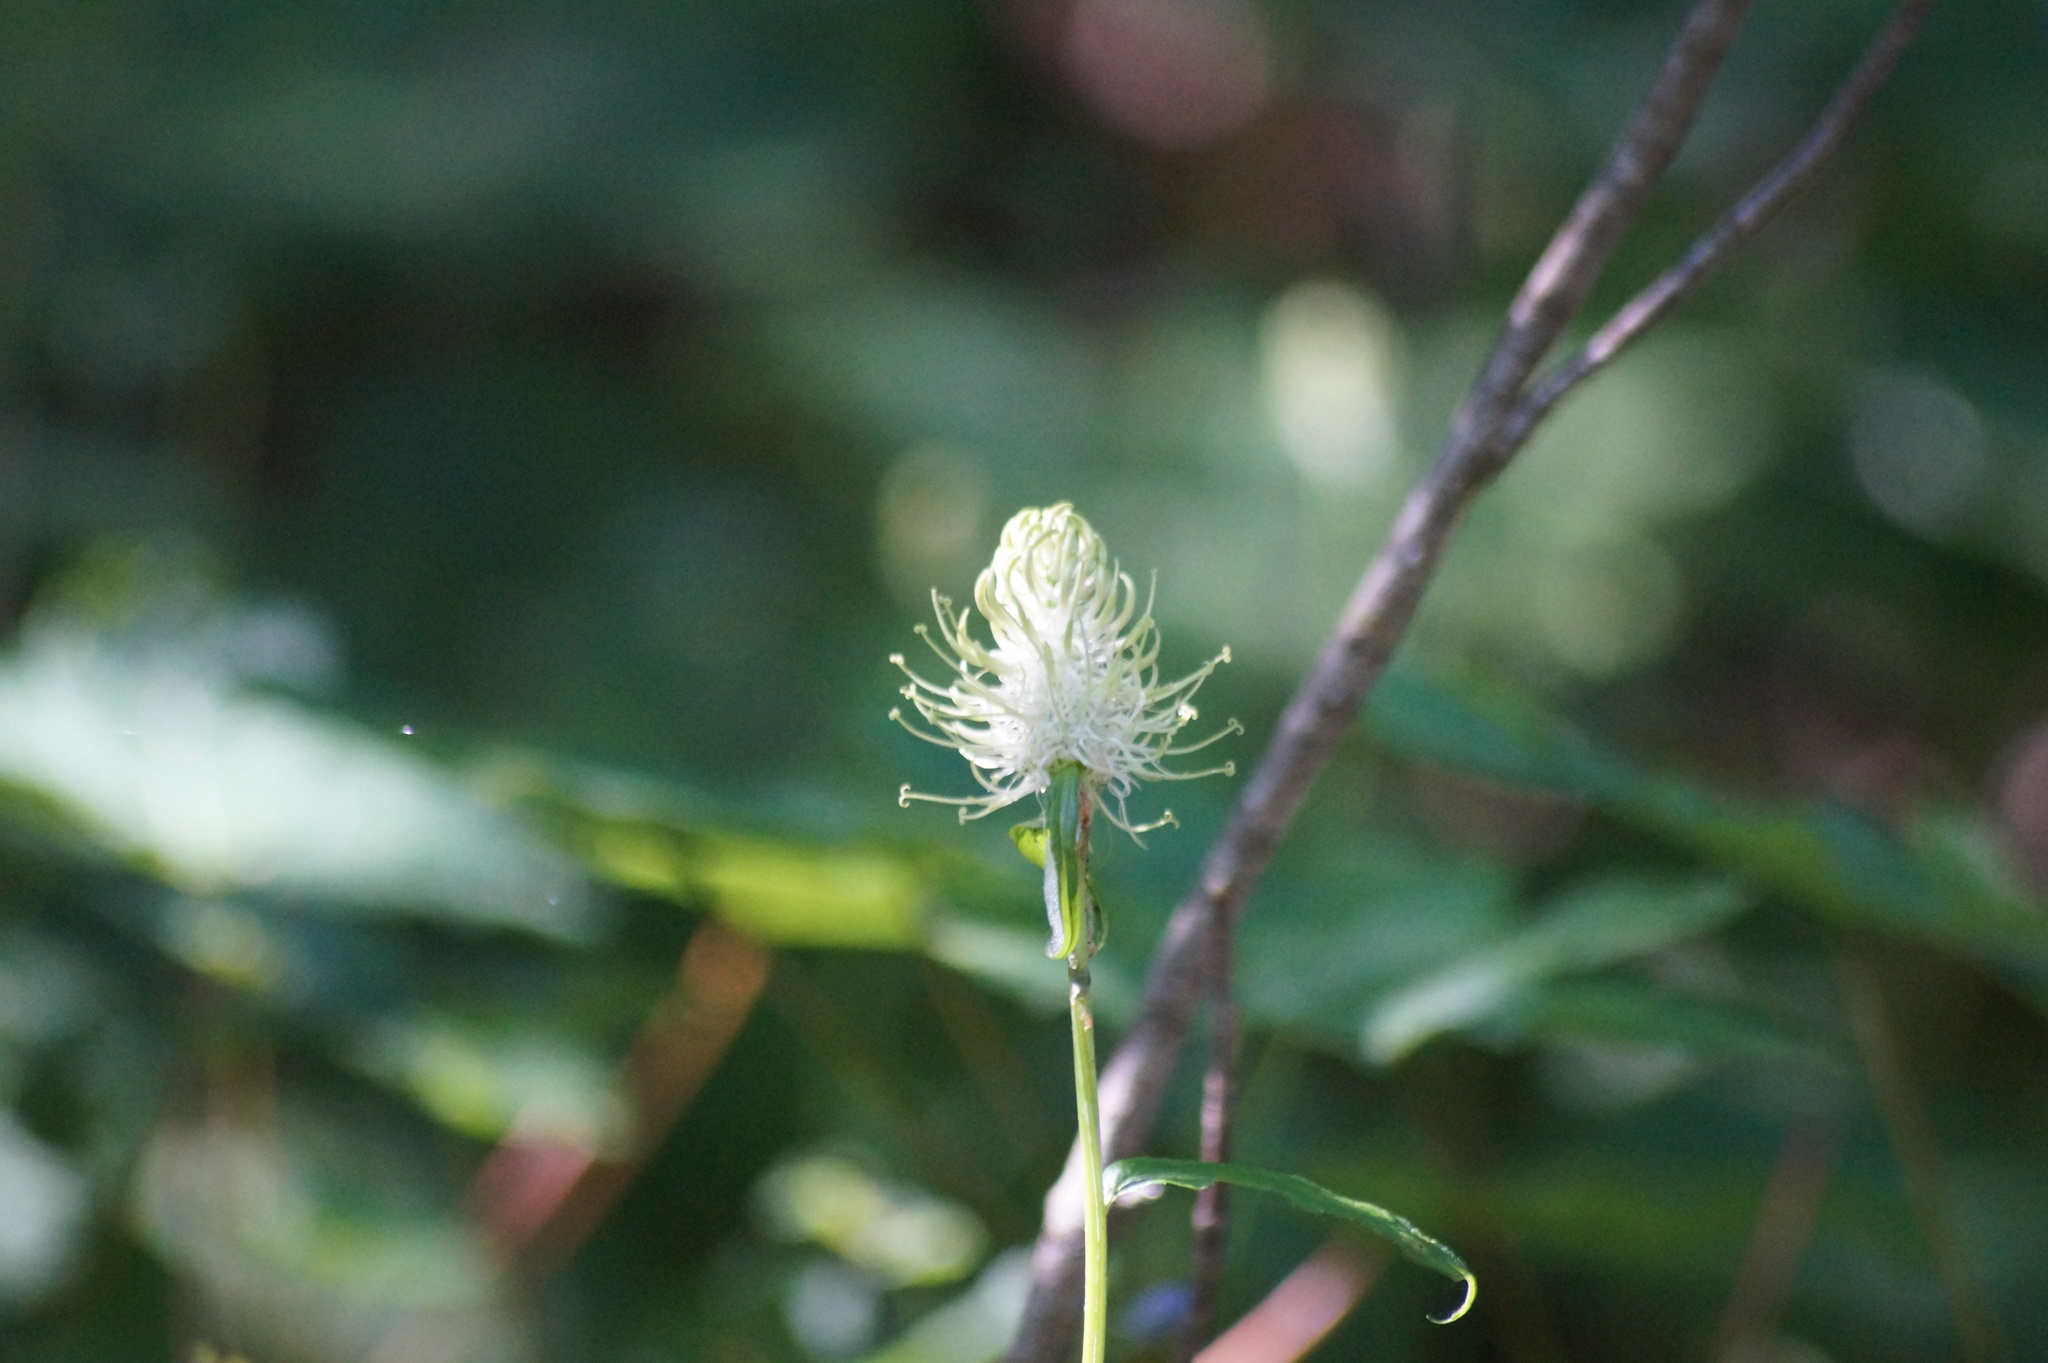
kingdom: Plantae
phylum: Tracheophyta
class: Magnoliopsida
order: Asterales
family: Campanulaceae
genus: Phyteuma
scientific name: Phyteuma spicatum
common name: Spiked rampion
